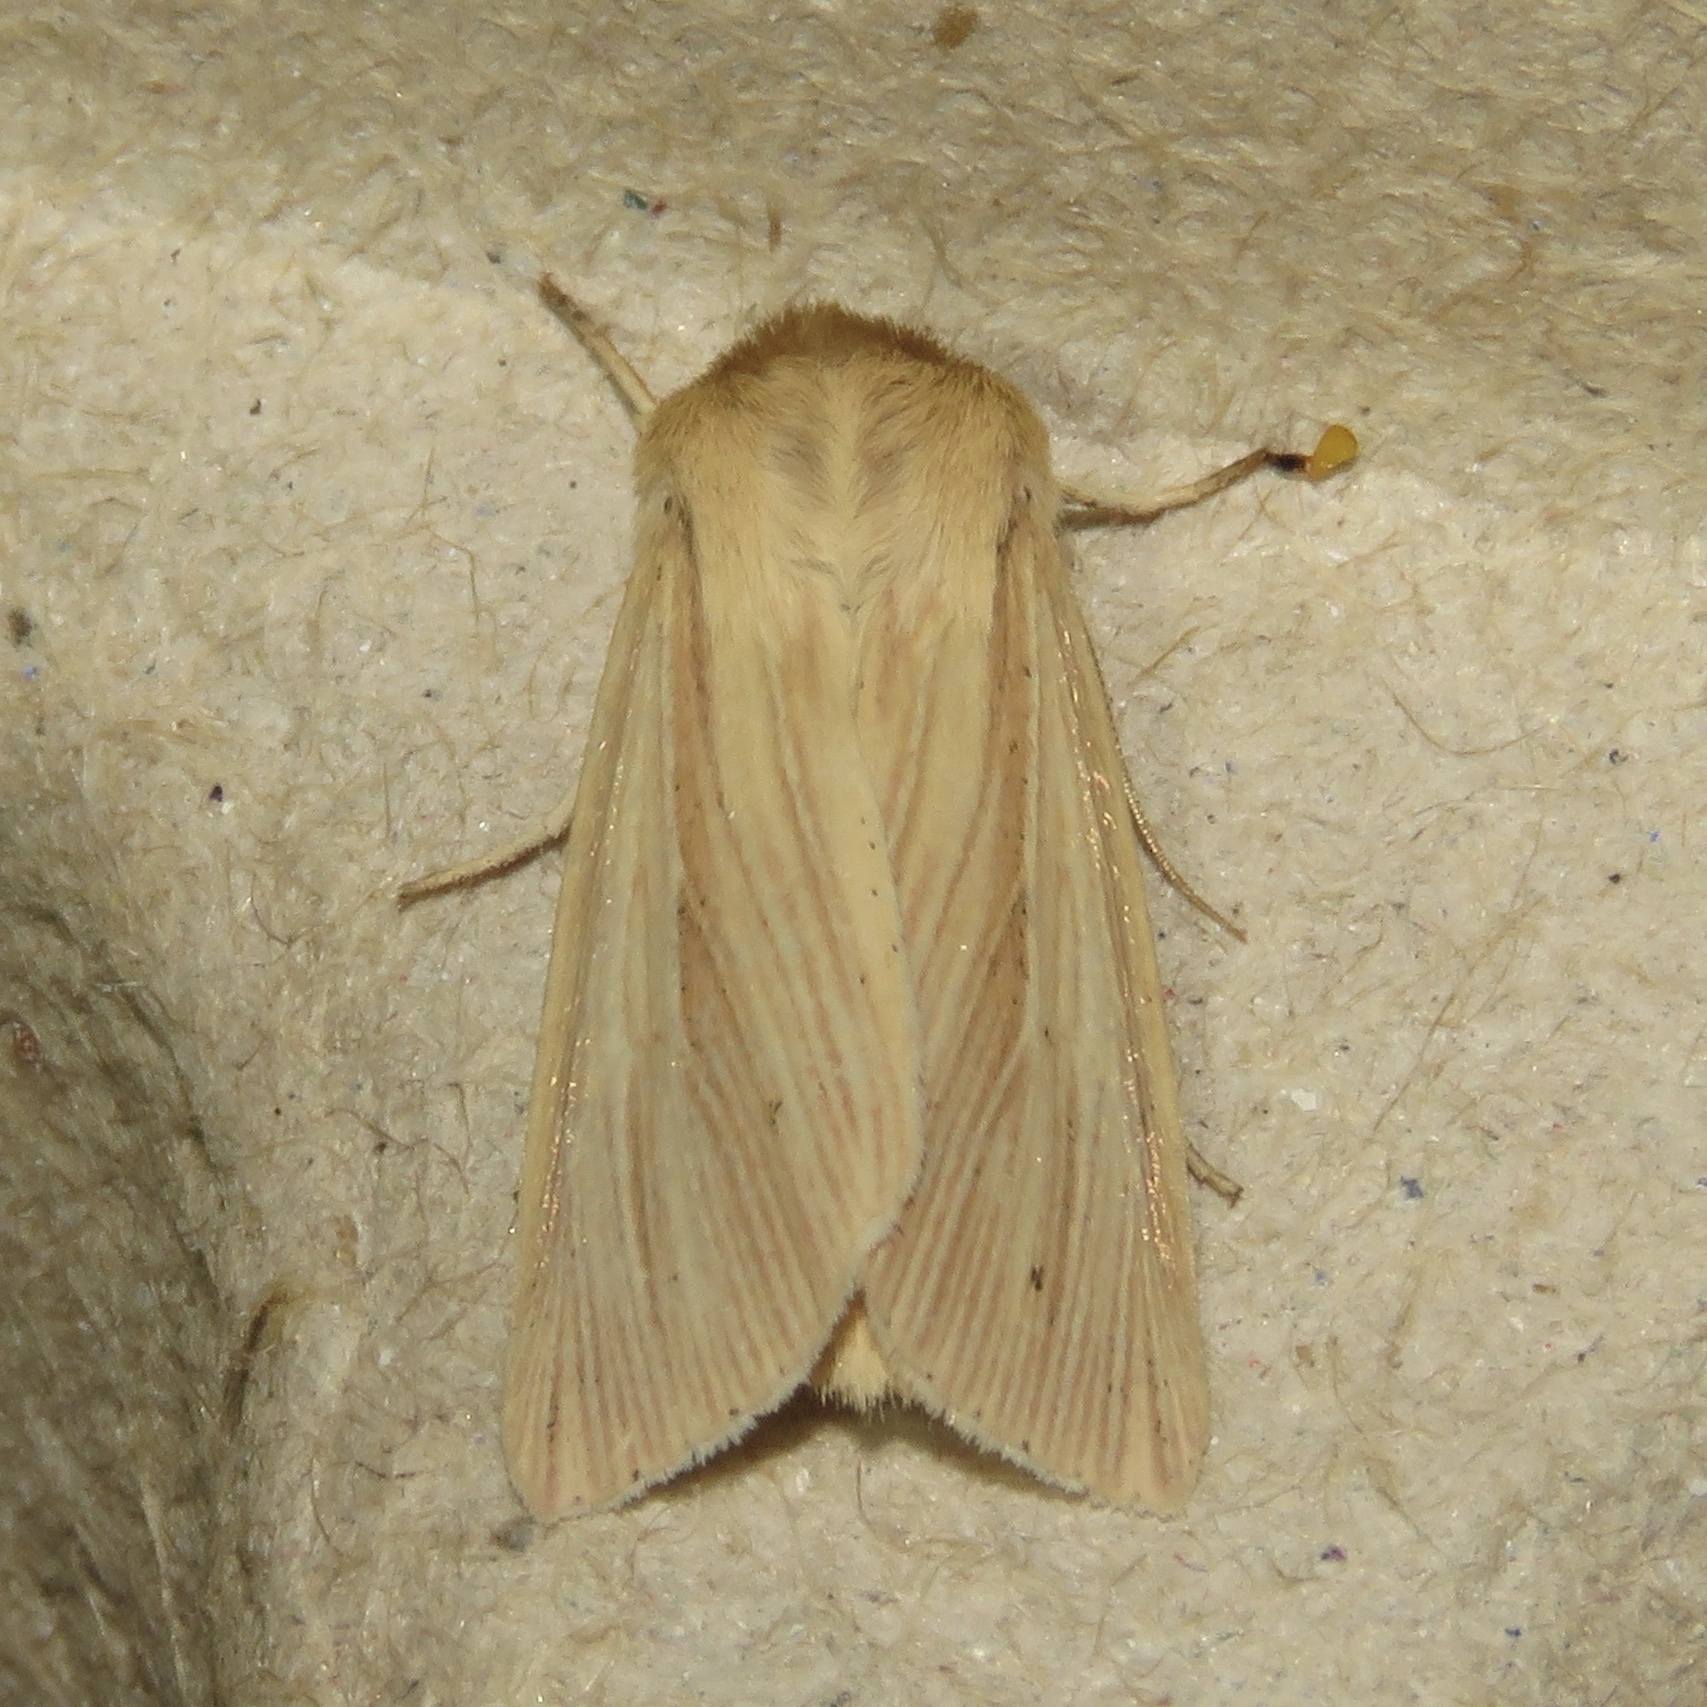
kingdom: Animalia
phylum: Arthropoda
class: Insecta
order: Lepidoptera
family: Noctuidae
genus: Mythimna
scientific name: Mythimna oxygala
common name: Lesser wainscot
